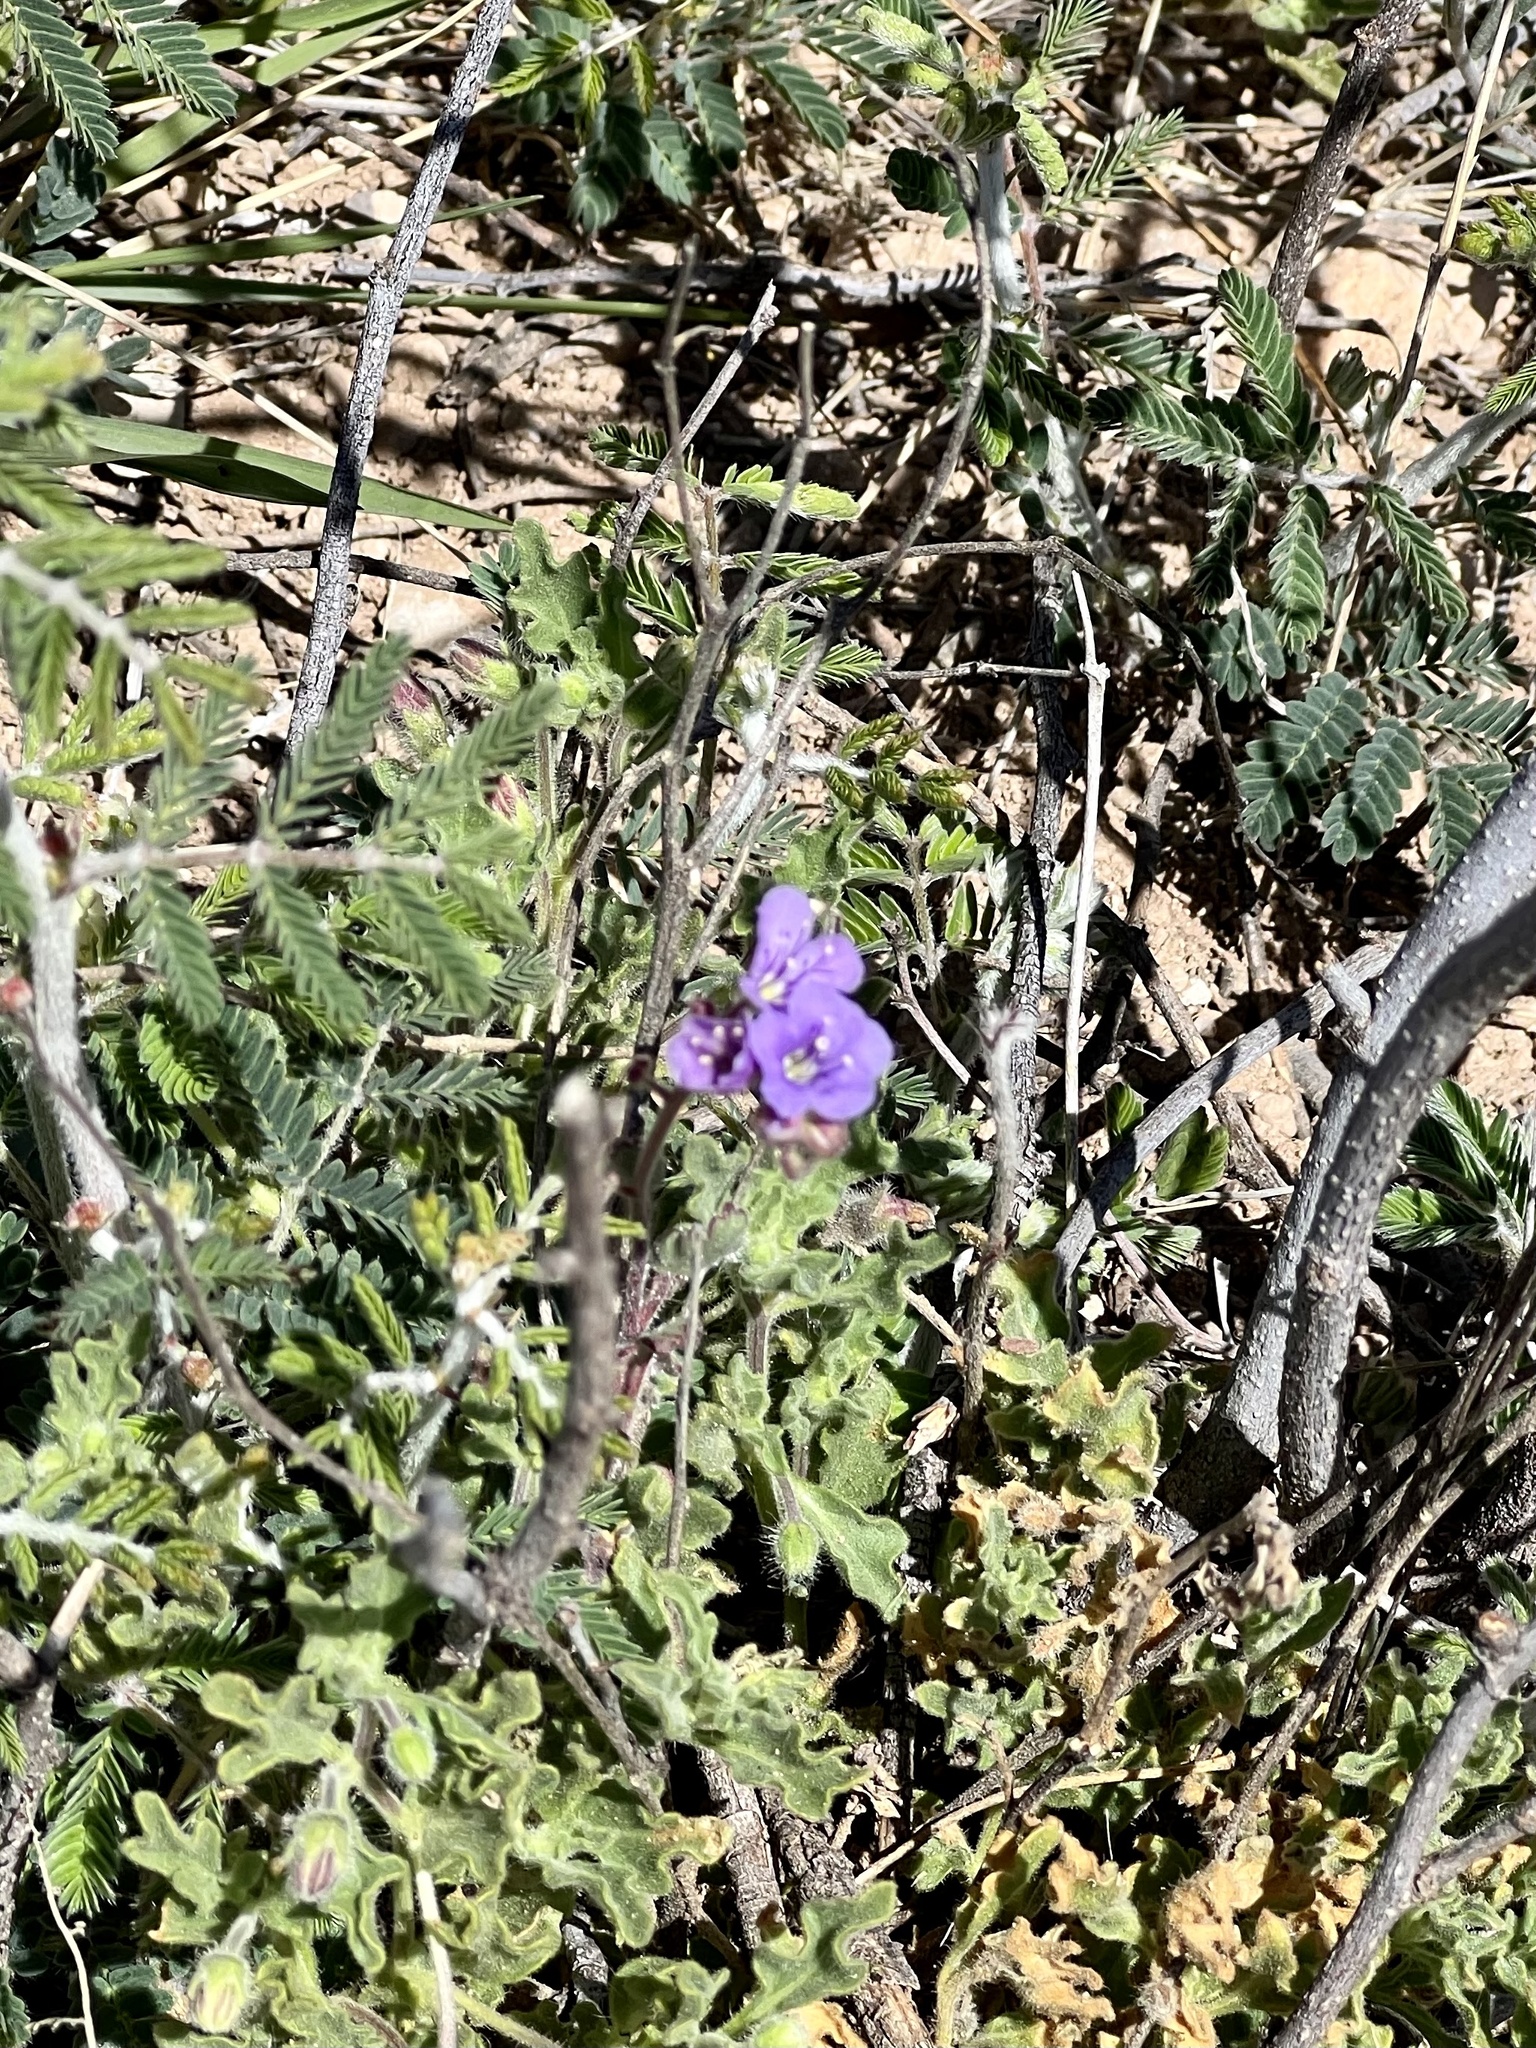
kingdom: Plantae
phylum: Tracheophyta
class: Magnoliopsida
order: Boraginales
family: Hydrophyllaceae
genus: Phacelia
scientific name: Phacelia crenulata
